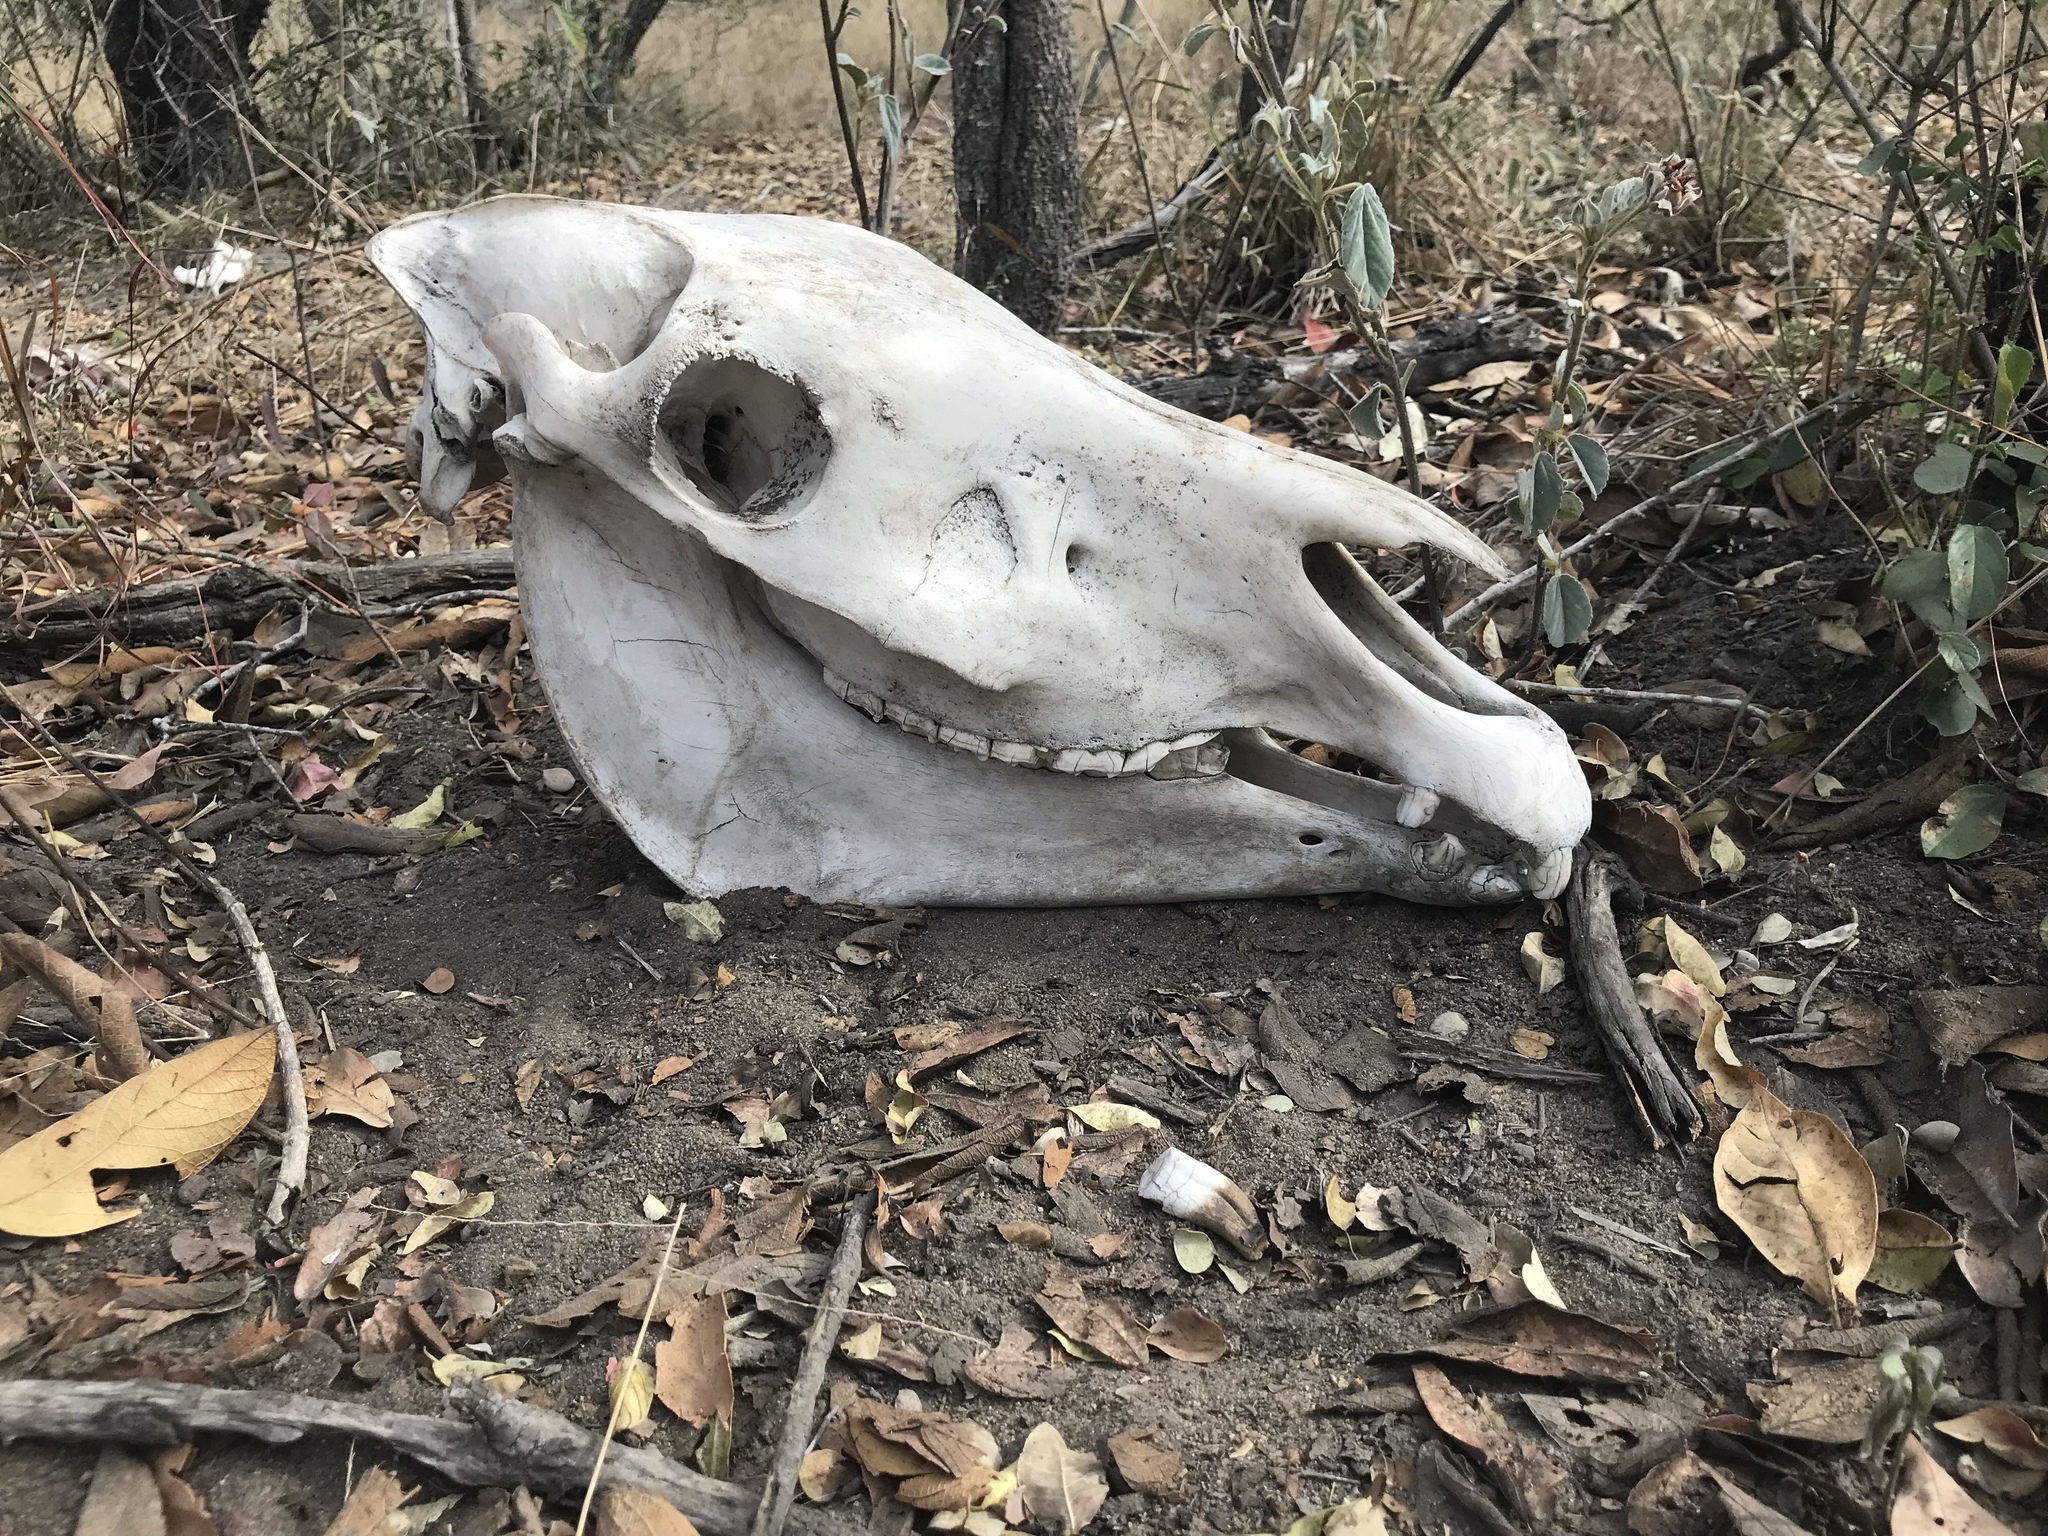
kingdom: Animalia
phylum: Chordata
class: Mammalia
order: Perissodactyla
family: Equidae
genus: Equus
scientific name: Equus quagga
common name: Plains zebra
